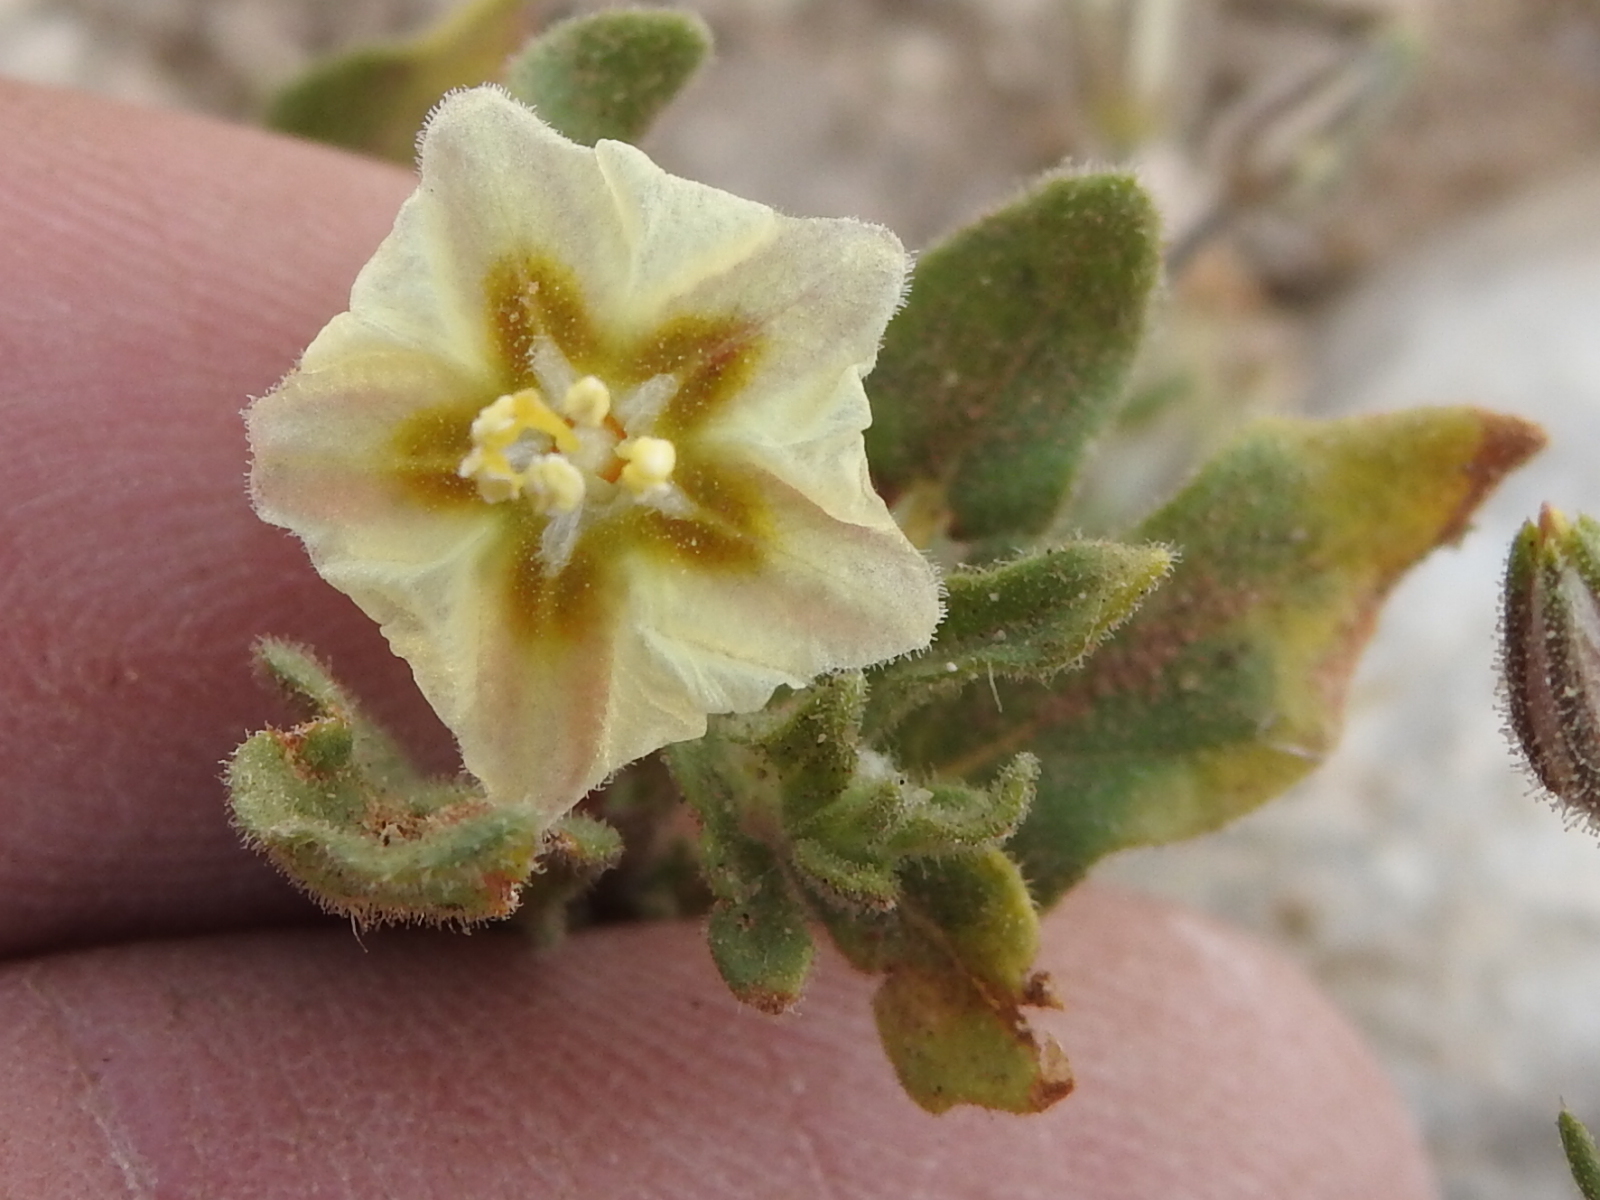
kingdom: Plantae
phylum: Tracheophyta
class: Magnoliopsida
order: Solanales
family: Solanaceae
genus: Chamaesaracha
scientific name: Chamaesaracha sordida
